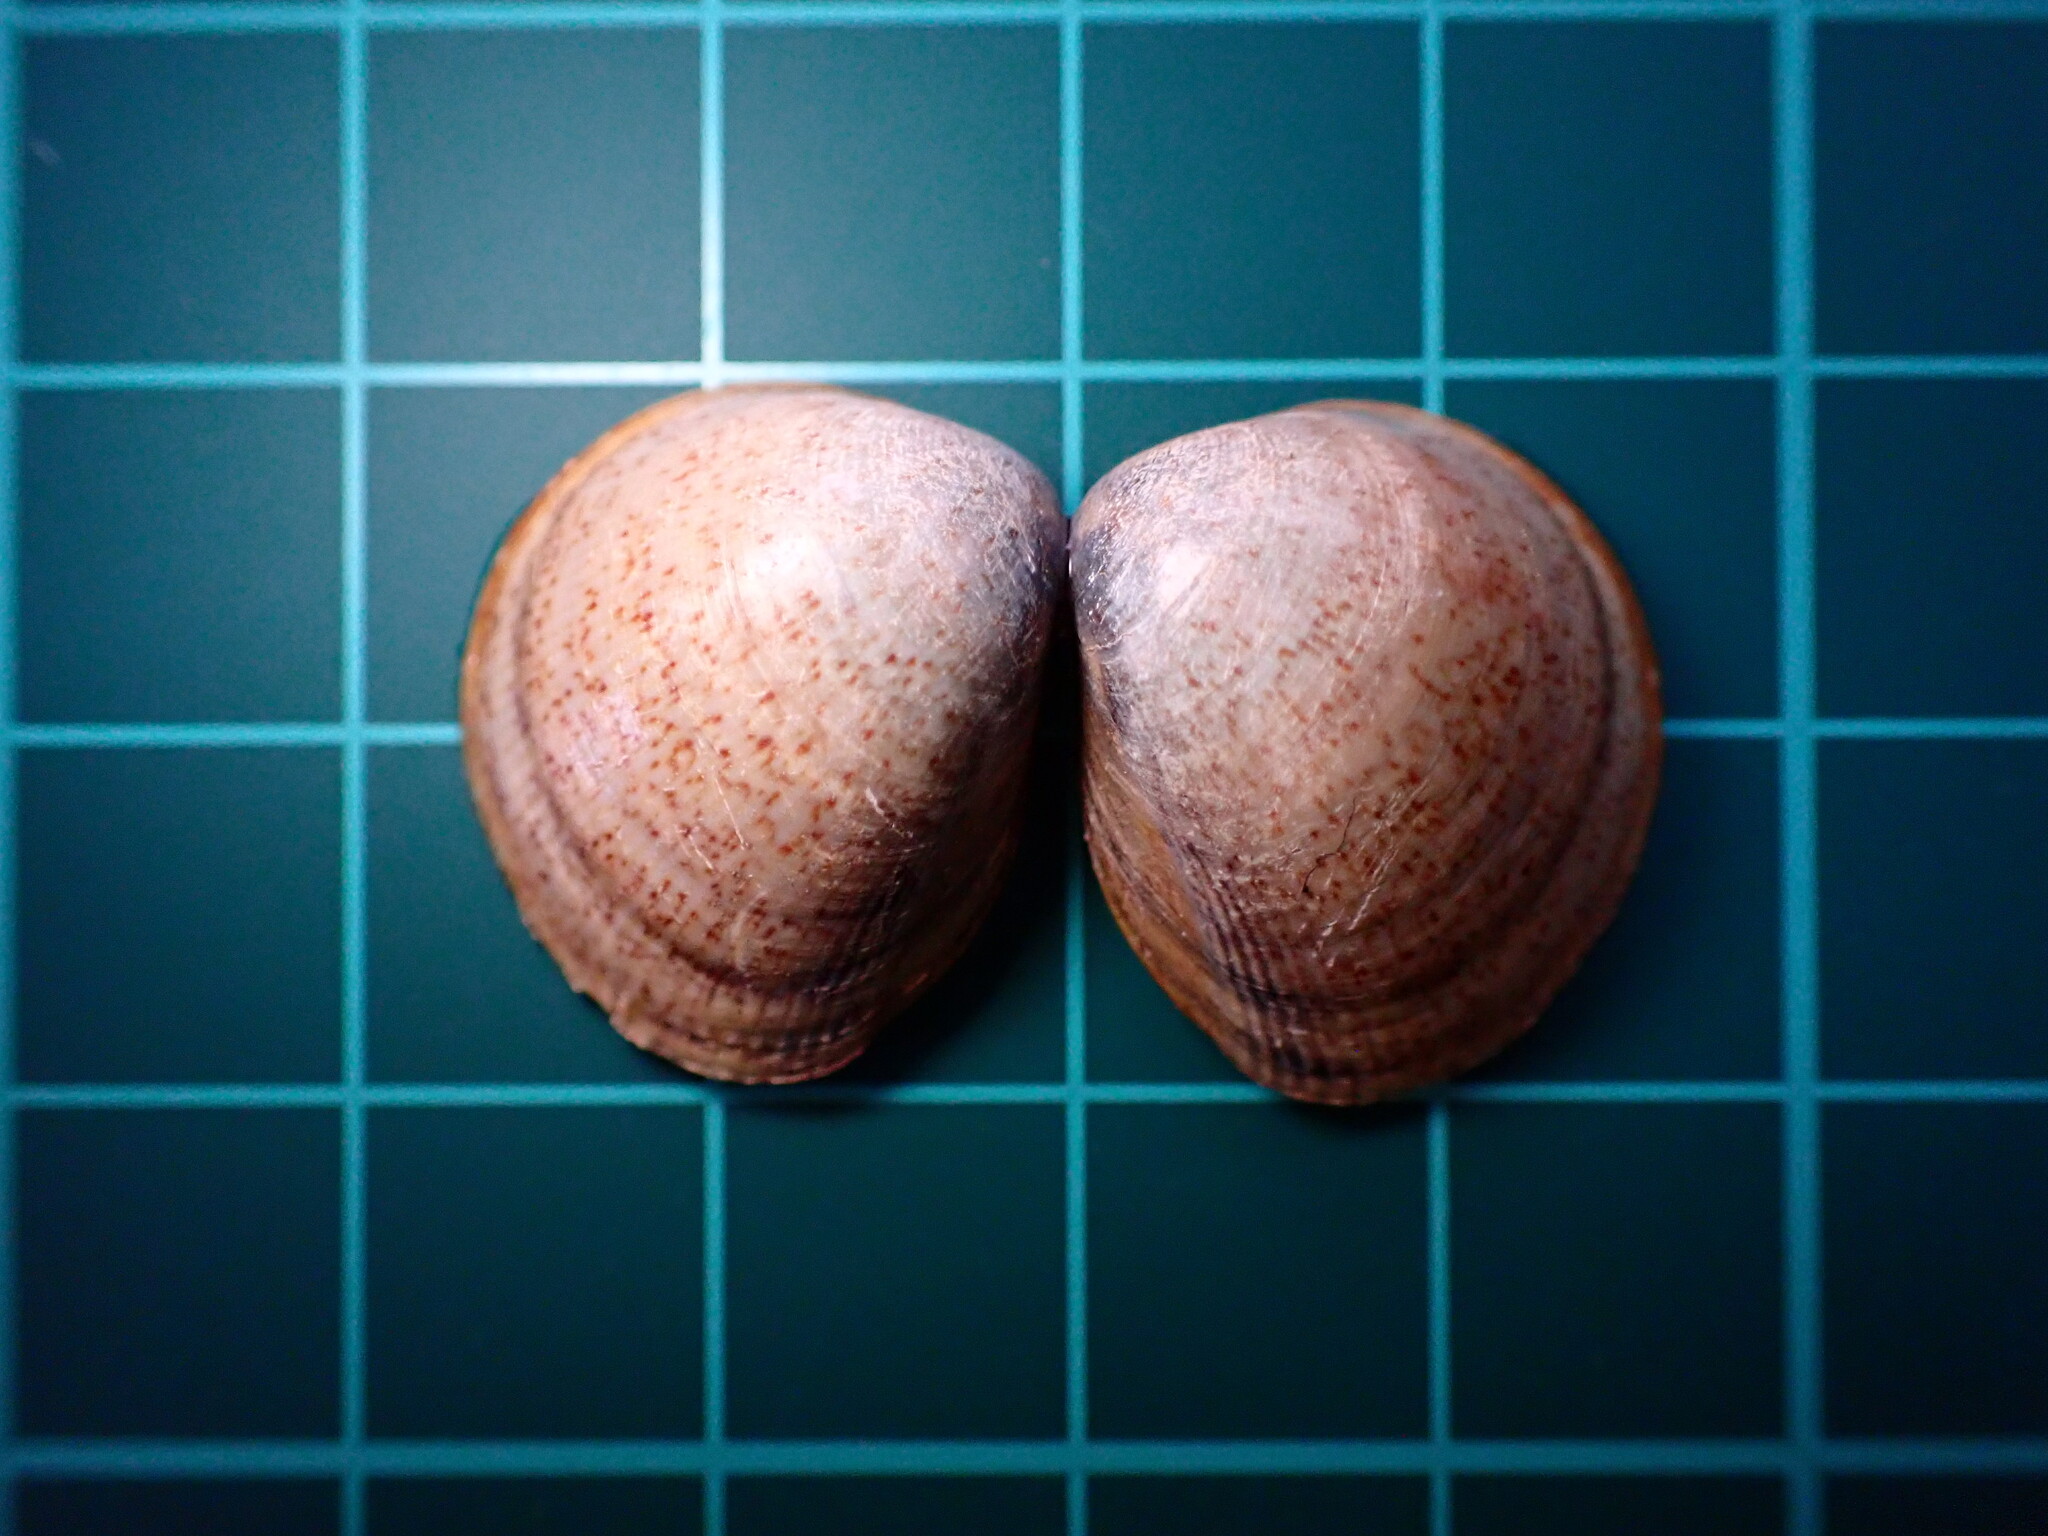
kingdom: Animalia
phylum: Mollusca
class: Bivalvia
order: Cardiida
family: Cardiidae
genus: Laevicardium
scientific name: Laevicardium substriatum
